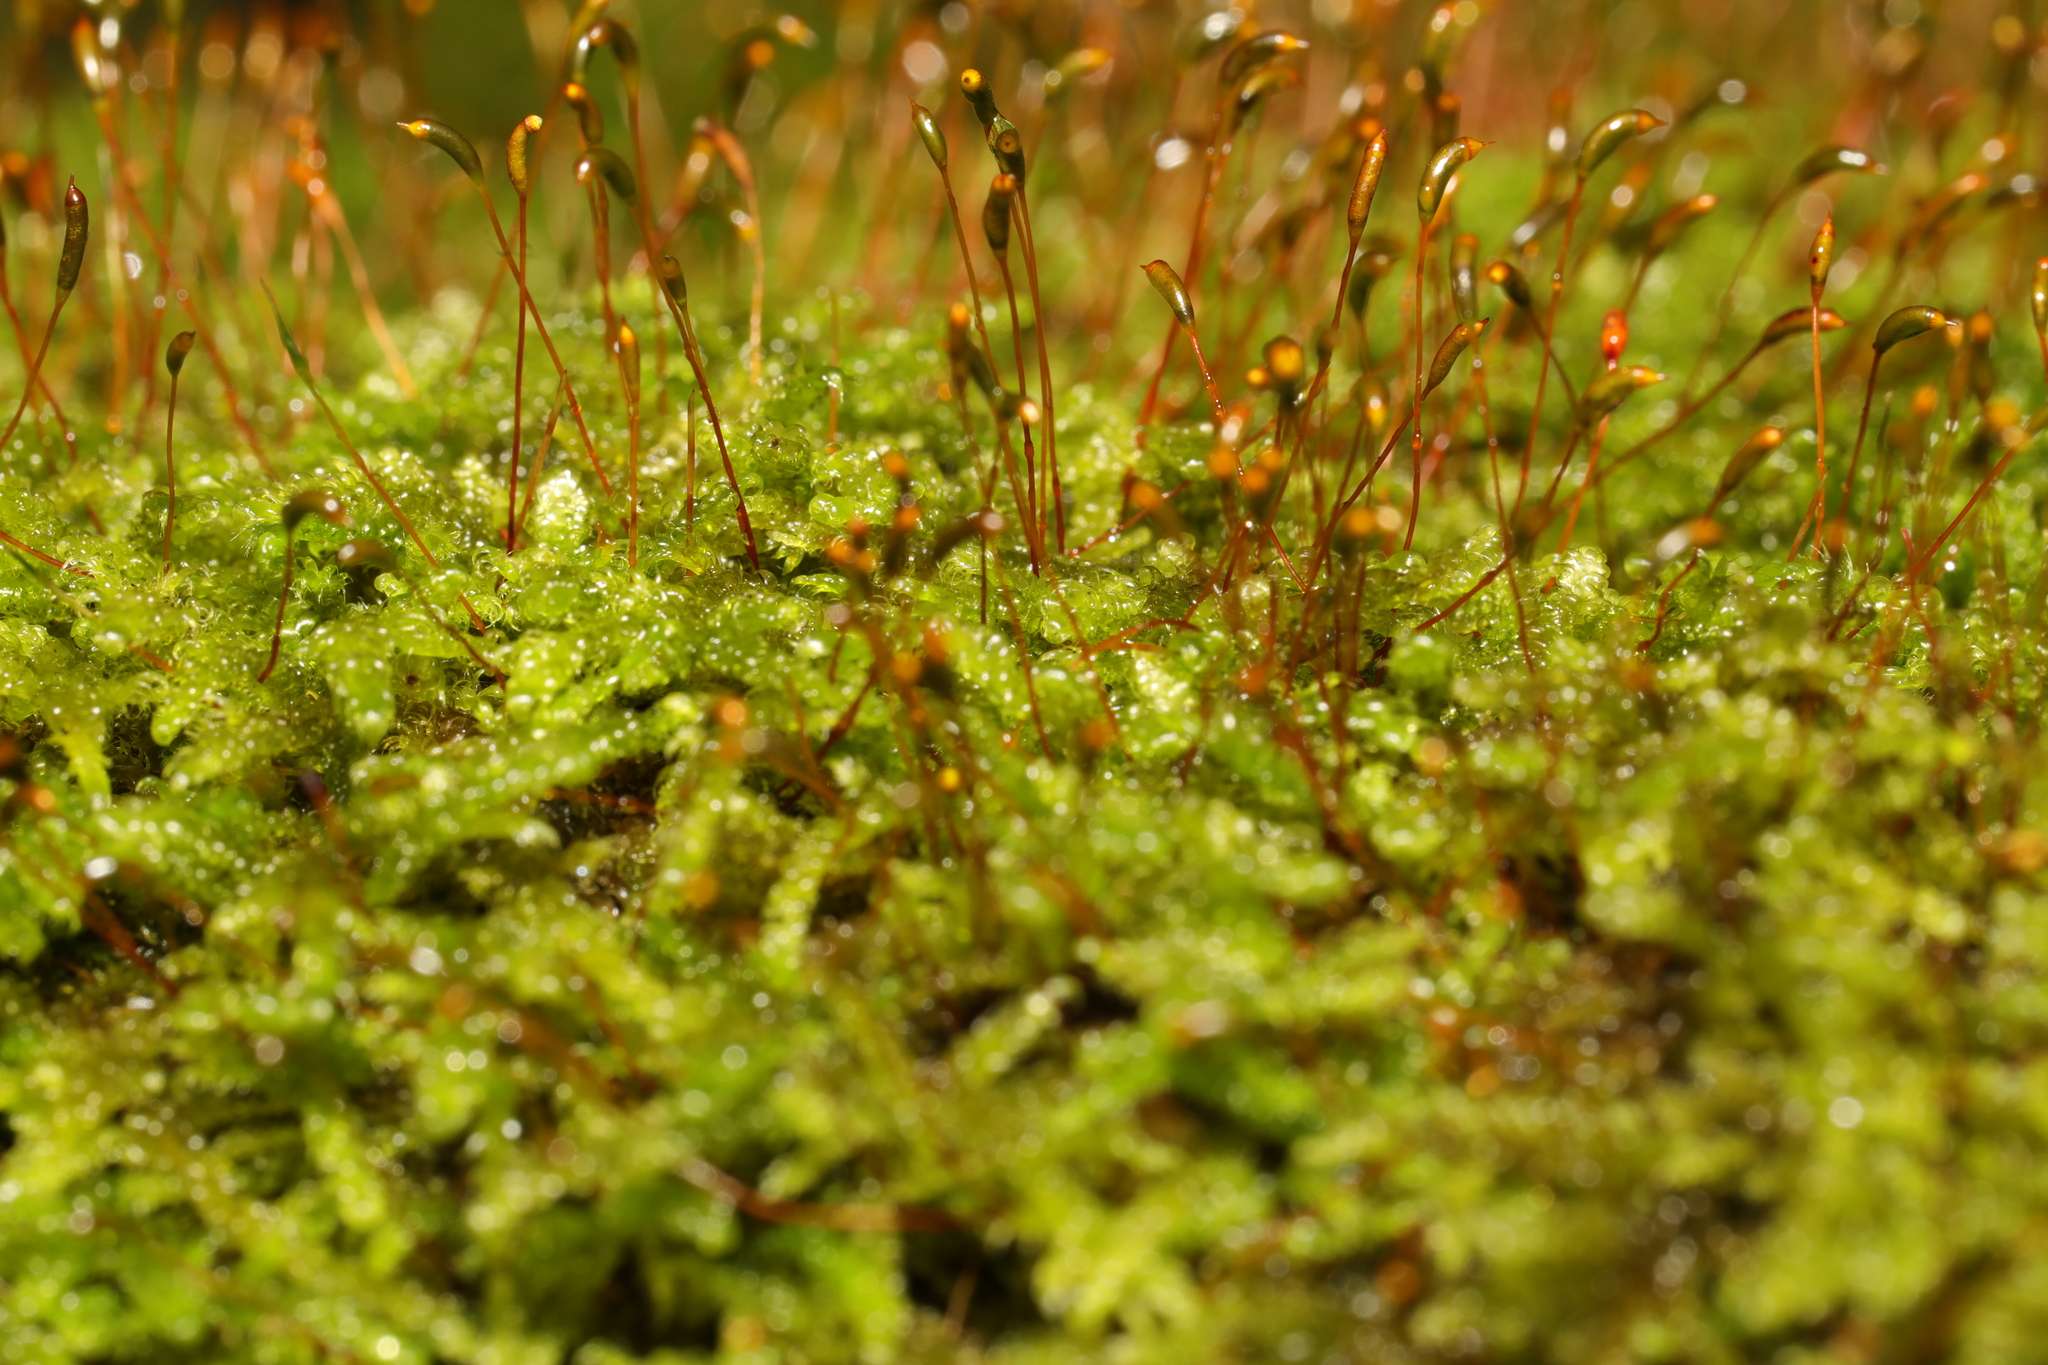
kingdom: Plantae
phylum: Bryophyta
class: Bryopsida
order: Hypnales
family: Hypnaceae
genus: Hypnum
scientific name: Hypnum cupressiforme
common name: Cypress-leaved plait-moss
